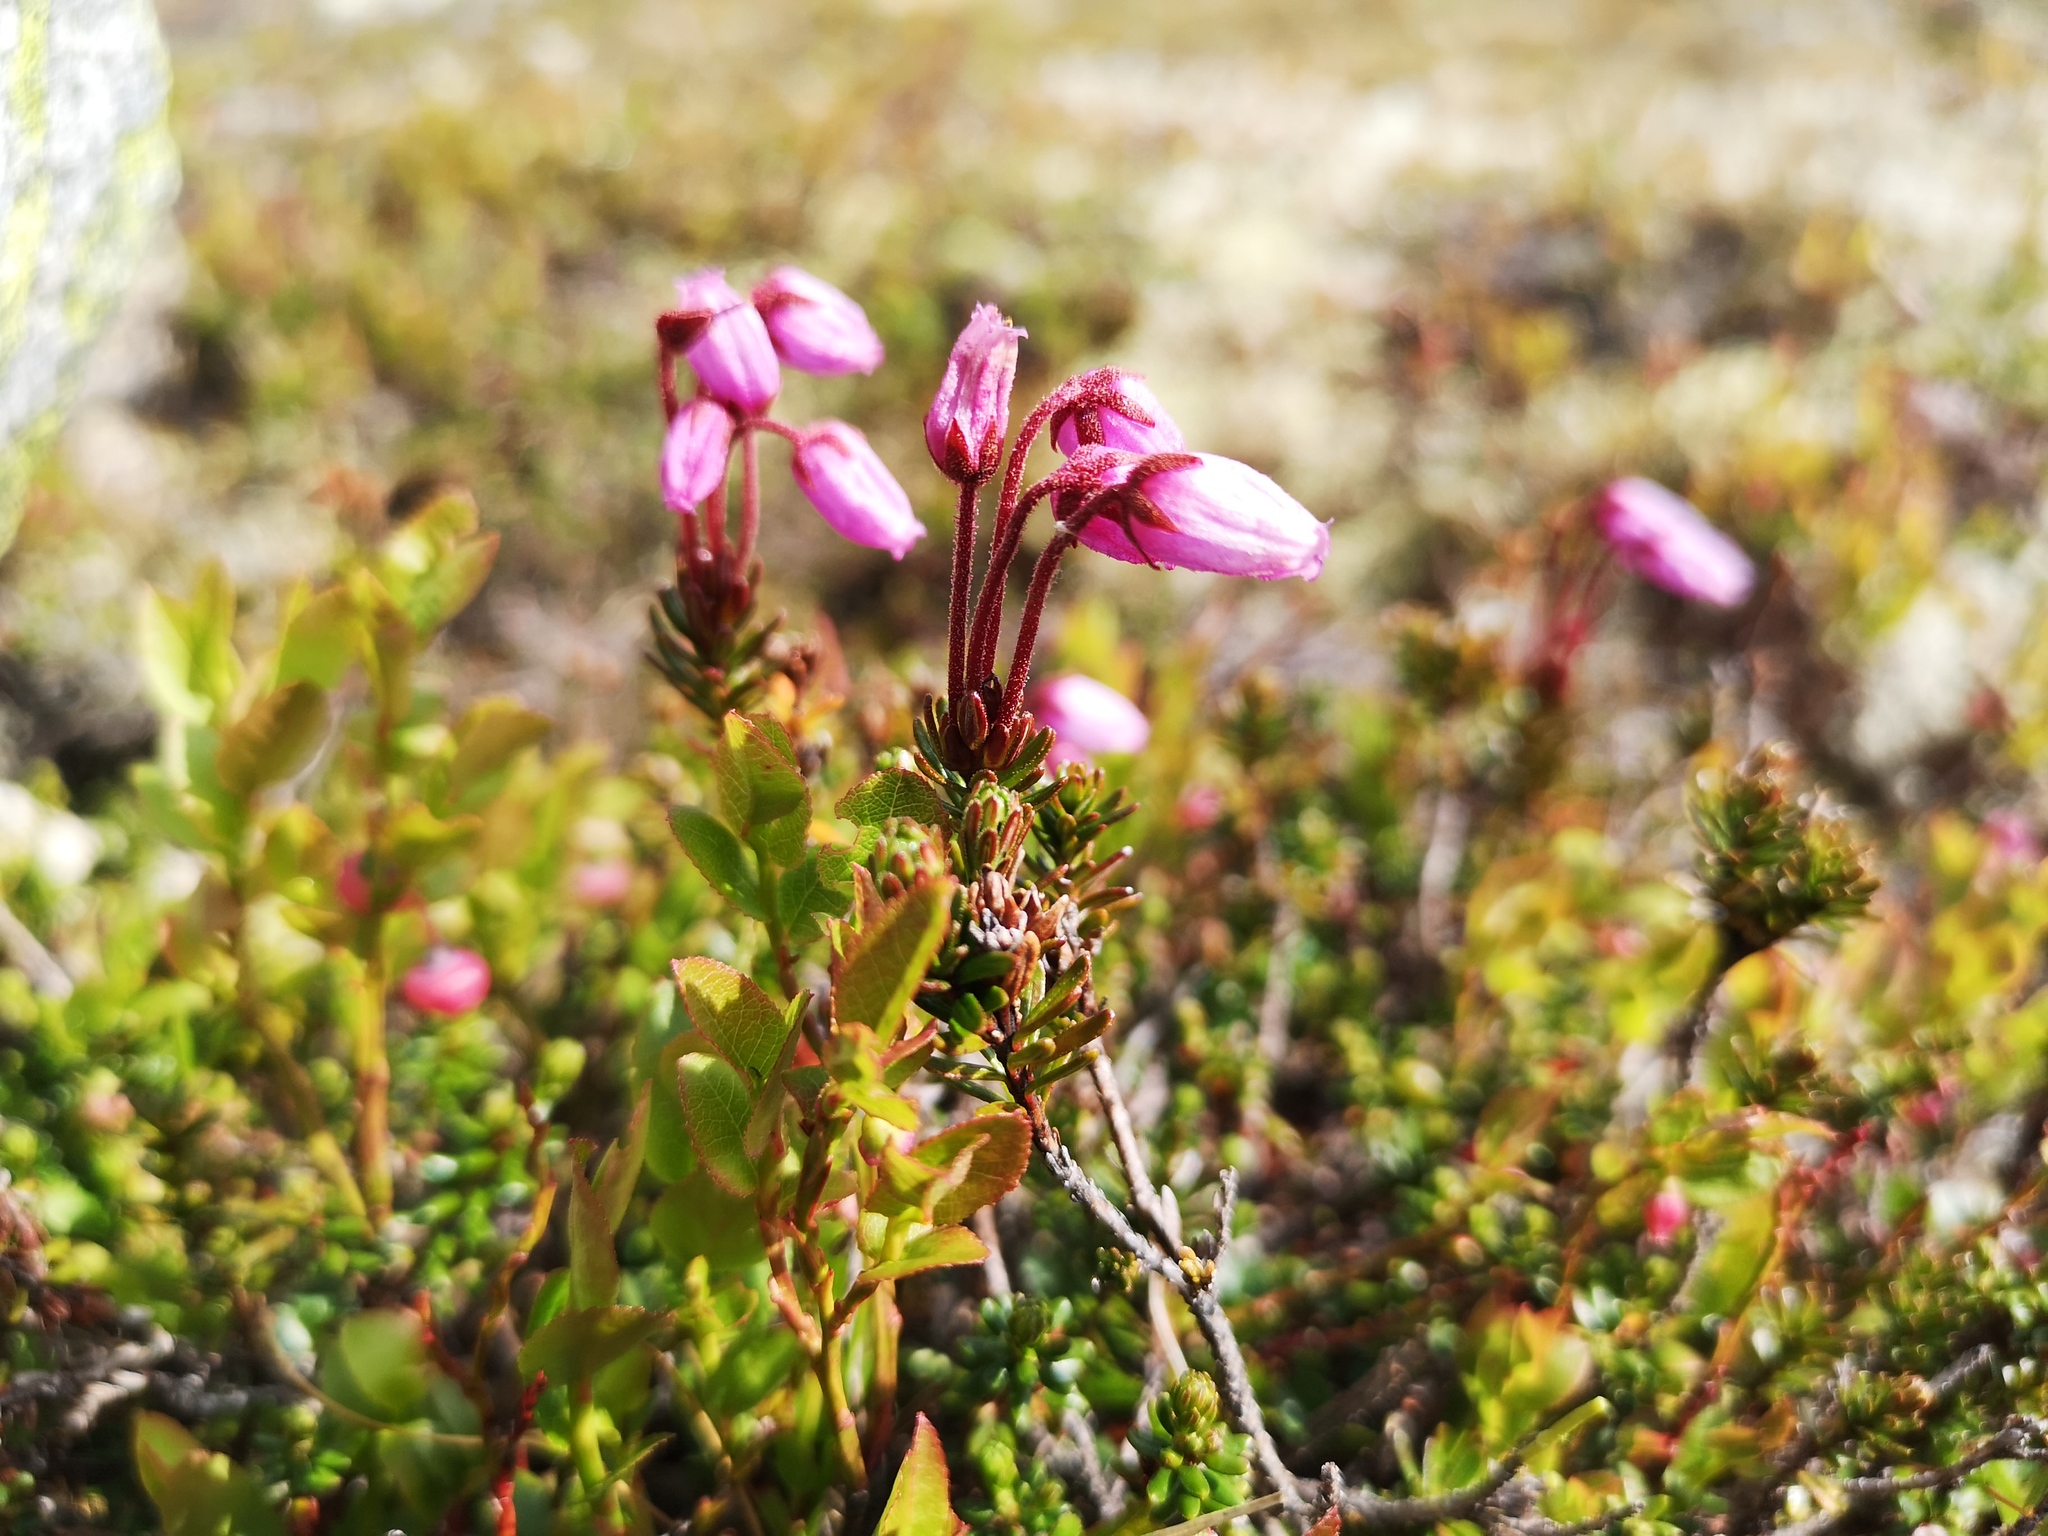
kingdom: Plantae
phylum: Tracheophyta
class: Magnoliopsida
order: Ericales
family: Ericaceae
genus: Phyllodoce
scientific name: Phyllodoce caerulea
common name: Blue heath
